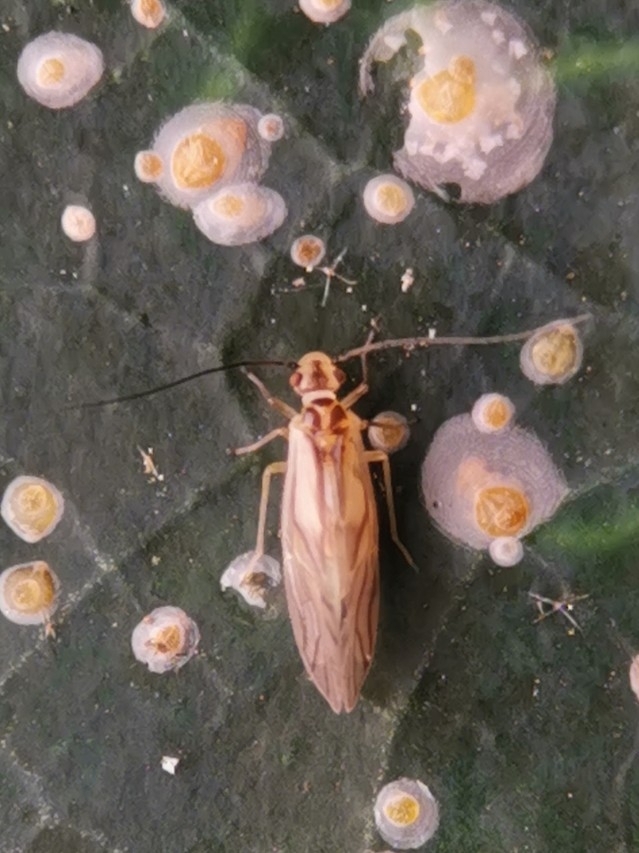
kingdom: Animalia
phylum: Arthropoda
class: Insecta
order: Psocodea
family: Caeciliusidae
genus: Valenzuela
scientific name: Valenzuela flavidus
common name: Yellow barklouse
